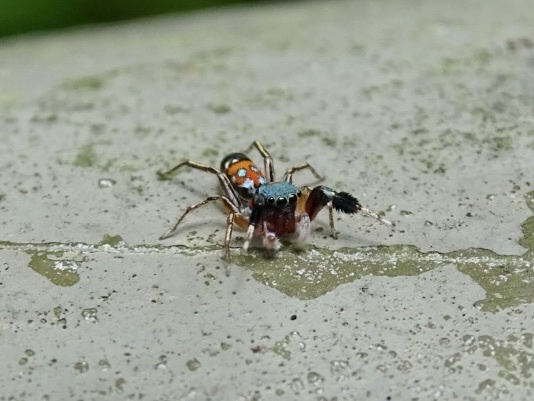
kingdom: Animalia
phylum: Arthropoda
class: Arachnida
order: Araneae
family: Salticidae
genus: Siler
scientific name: Siler collingwoodi
